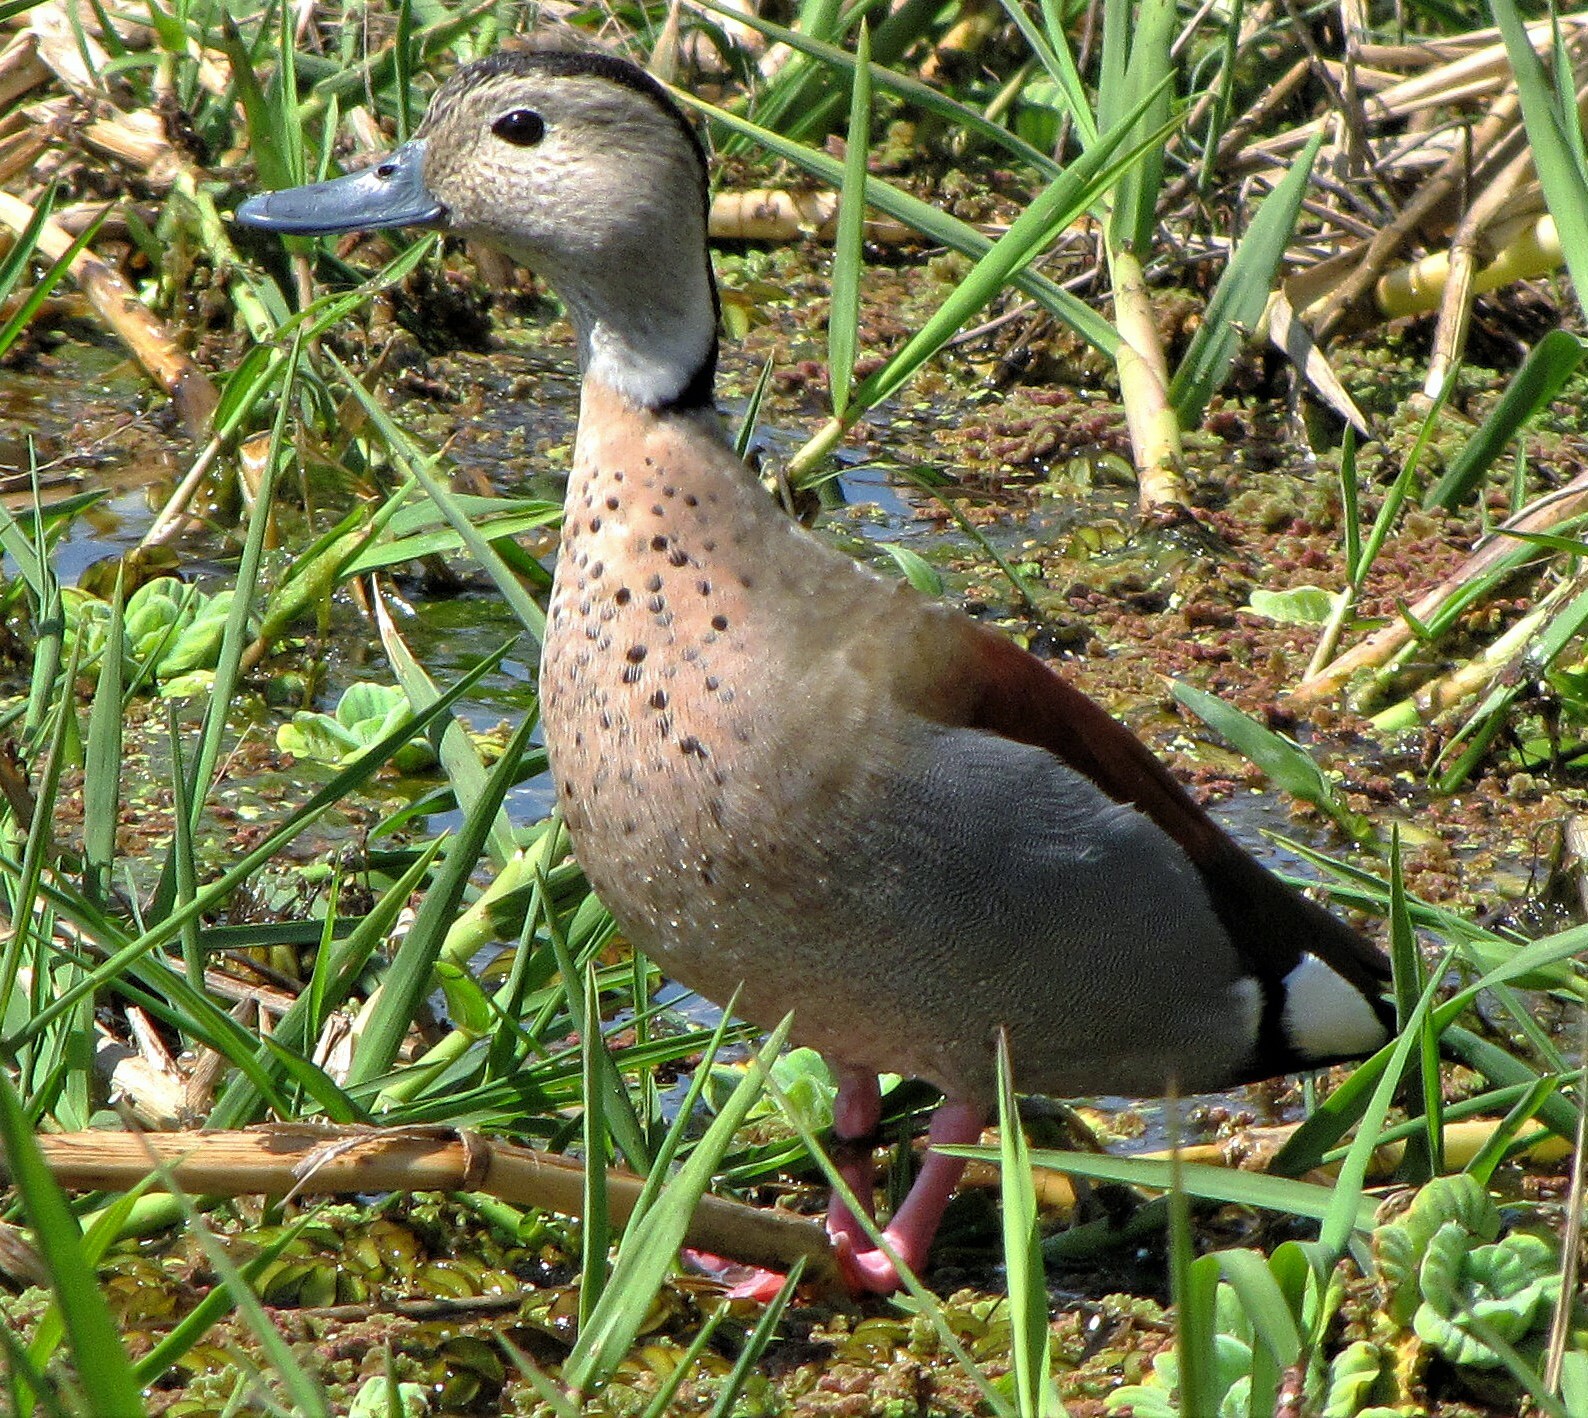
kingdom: Animalia
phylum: Chordata
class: Aves
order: Anseriformes
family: Anatidae
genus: Callonetta
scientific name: Callonetta leucophrys
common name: Ringed teal
